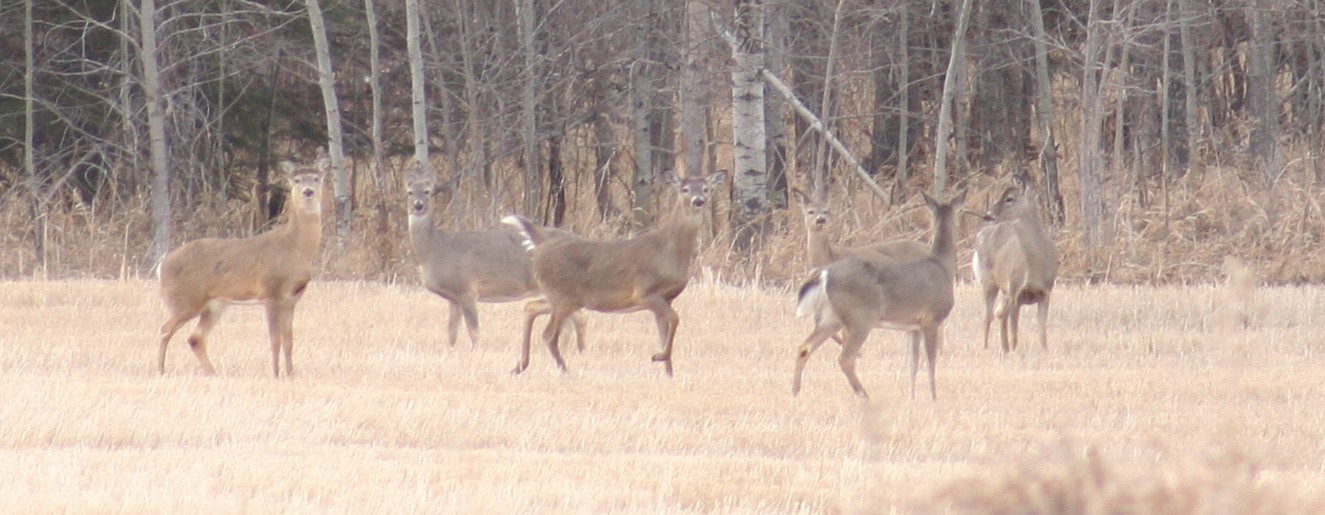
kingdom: Animalia
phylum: Chordata
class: Mammalia
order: Artiodactyla
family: Cervidae
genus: Odocoileus
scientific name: Odocoileus virginianus
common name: White-tailed deer
